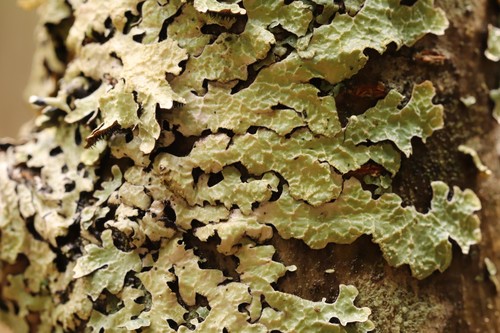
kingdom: Fungi
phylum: Ascomycota
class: Lecanoromycetes
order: Lecanorales
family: Parmeliaceae
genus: Parmelia
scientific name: Parmelia sulcata
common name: Netted shield lichen
